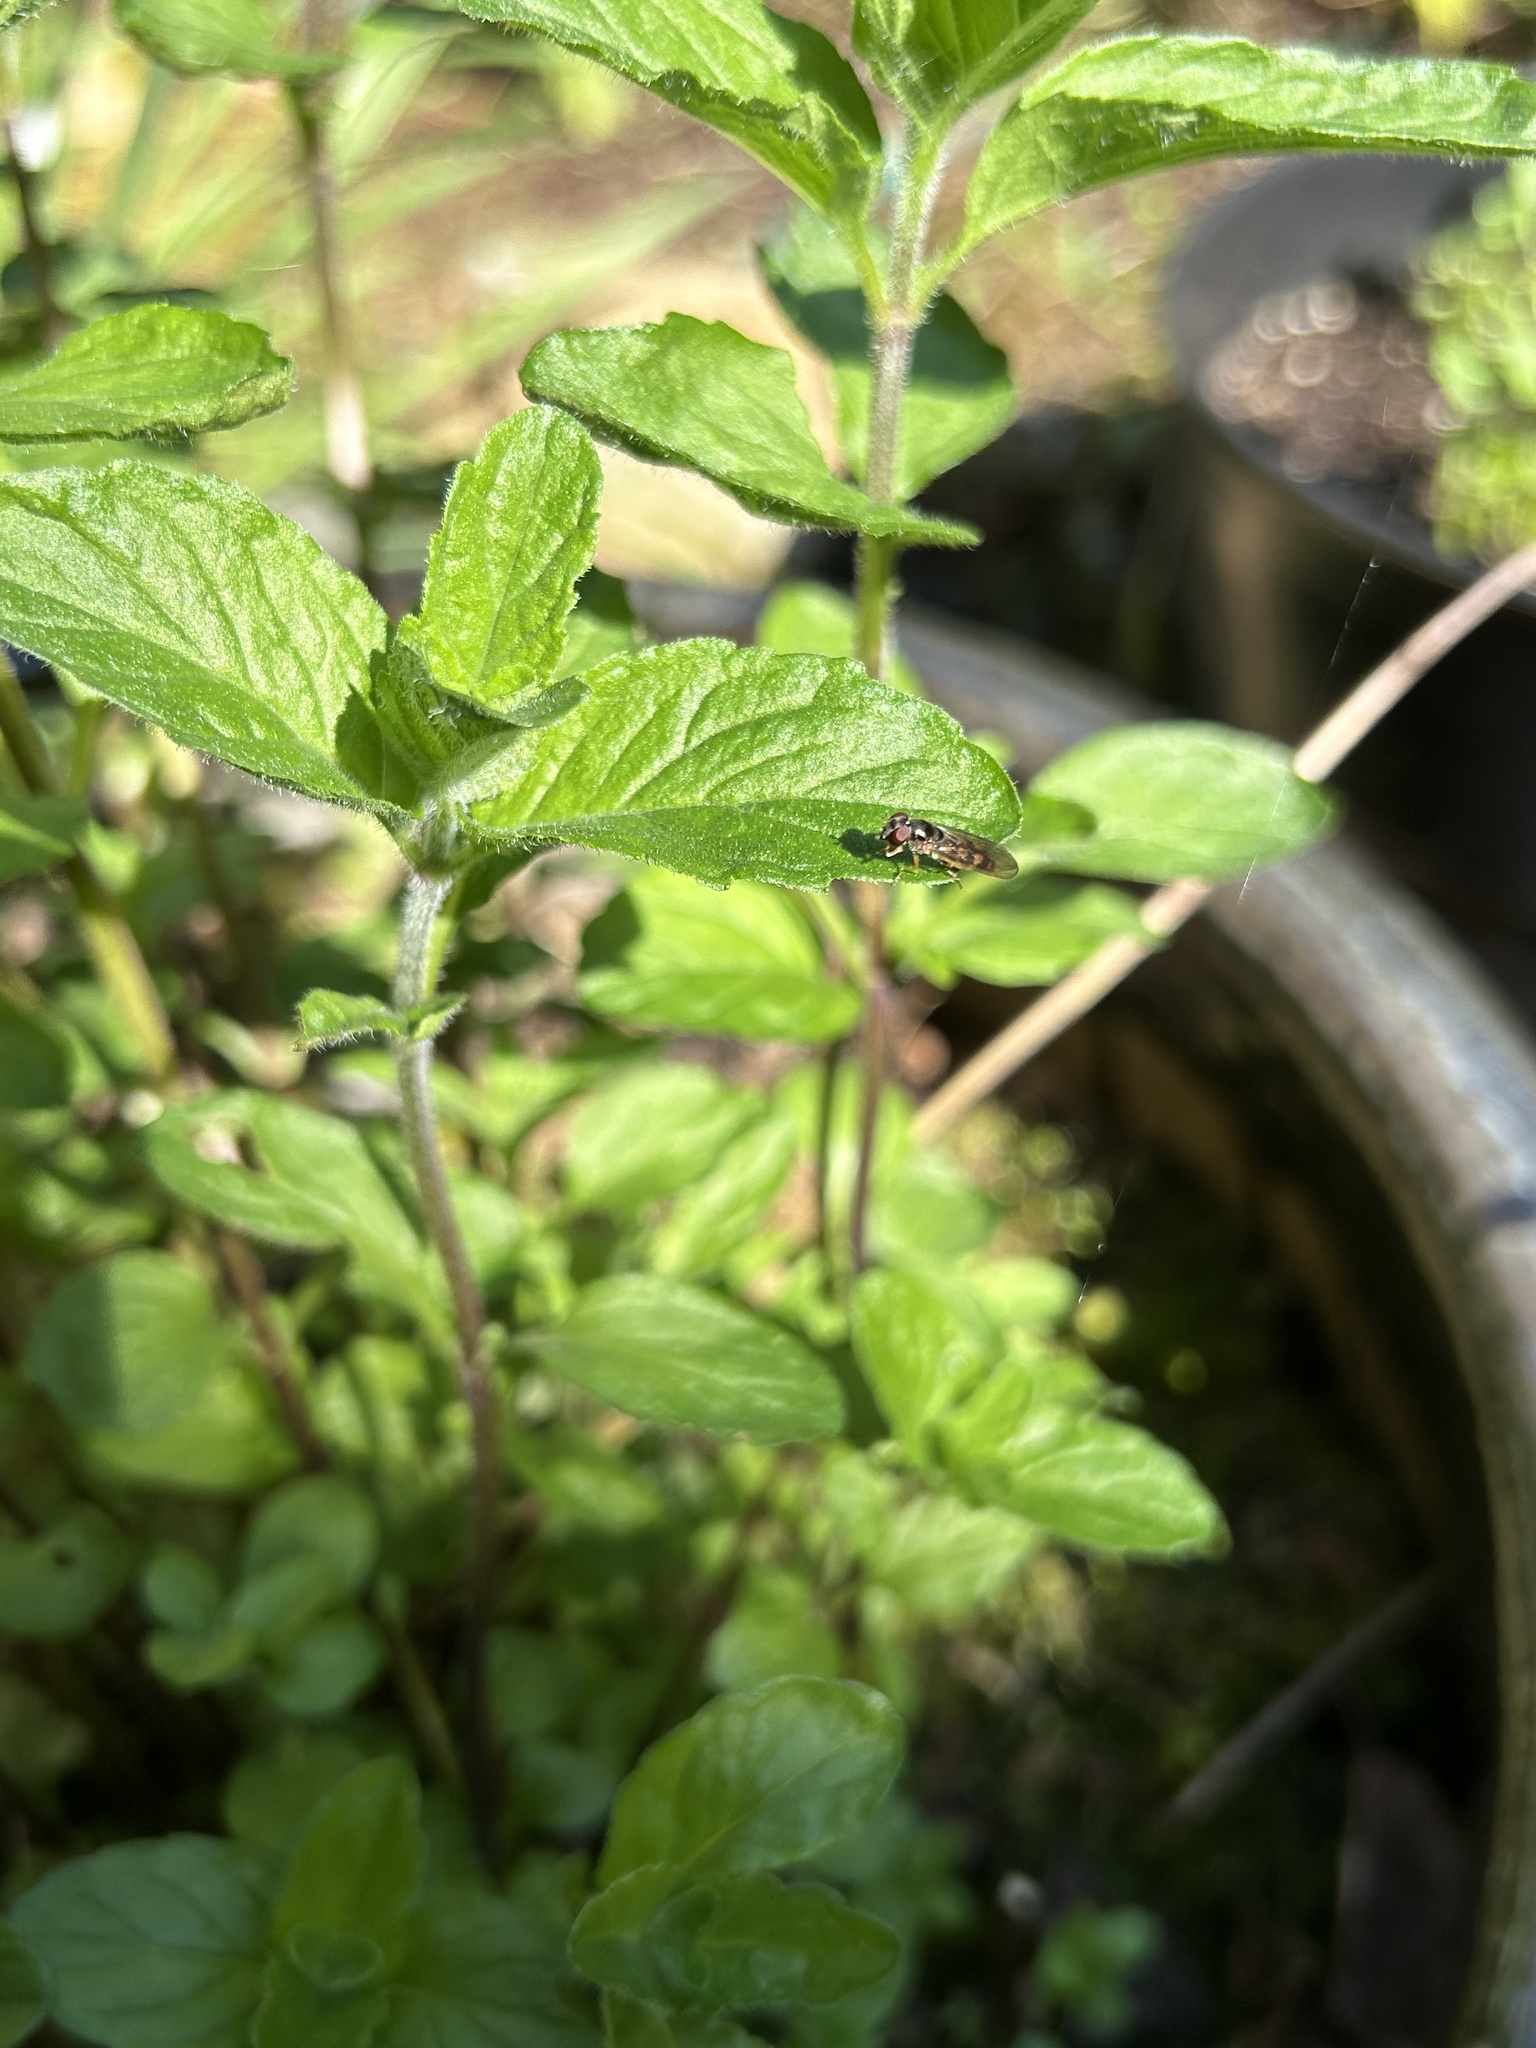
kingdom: Animalia
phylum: Arthropoda
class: Insecta
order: Diptera
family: Syrphidae
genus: Melanostoma
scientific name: Melanostoma mellina
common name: Hover fly
